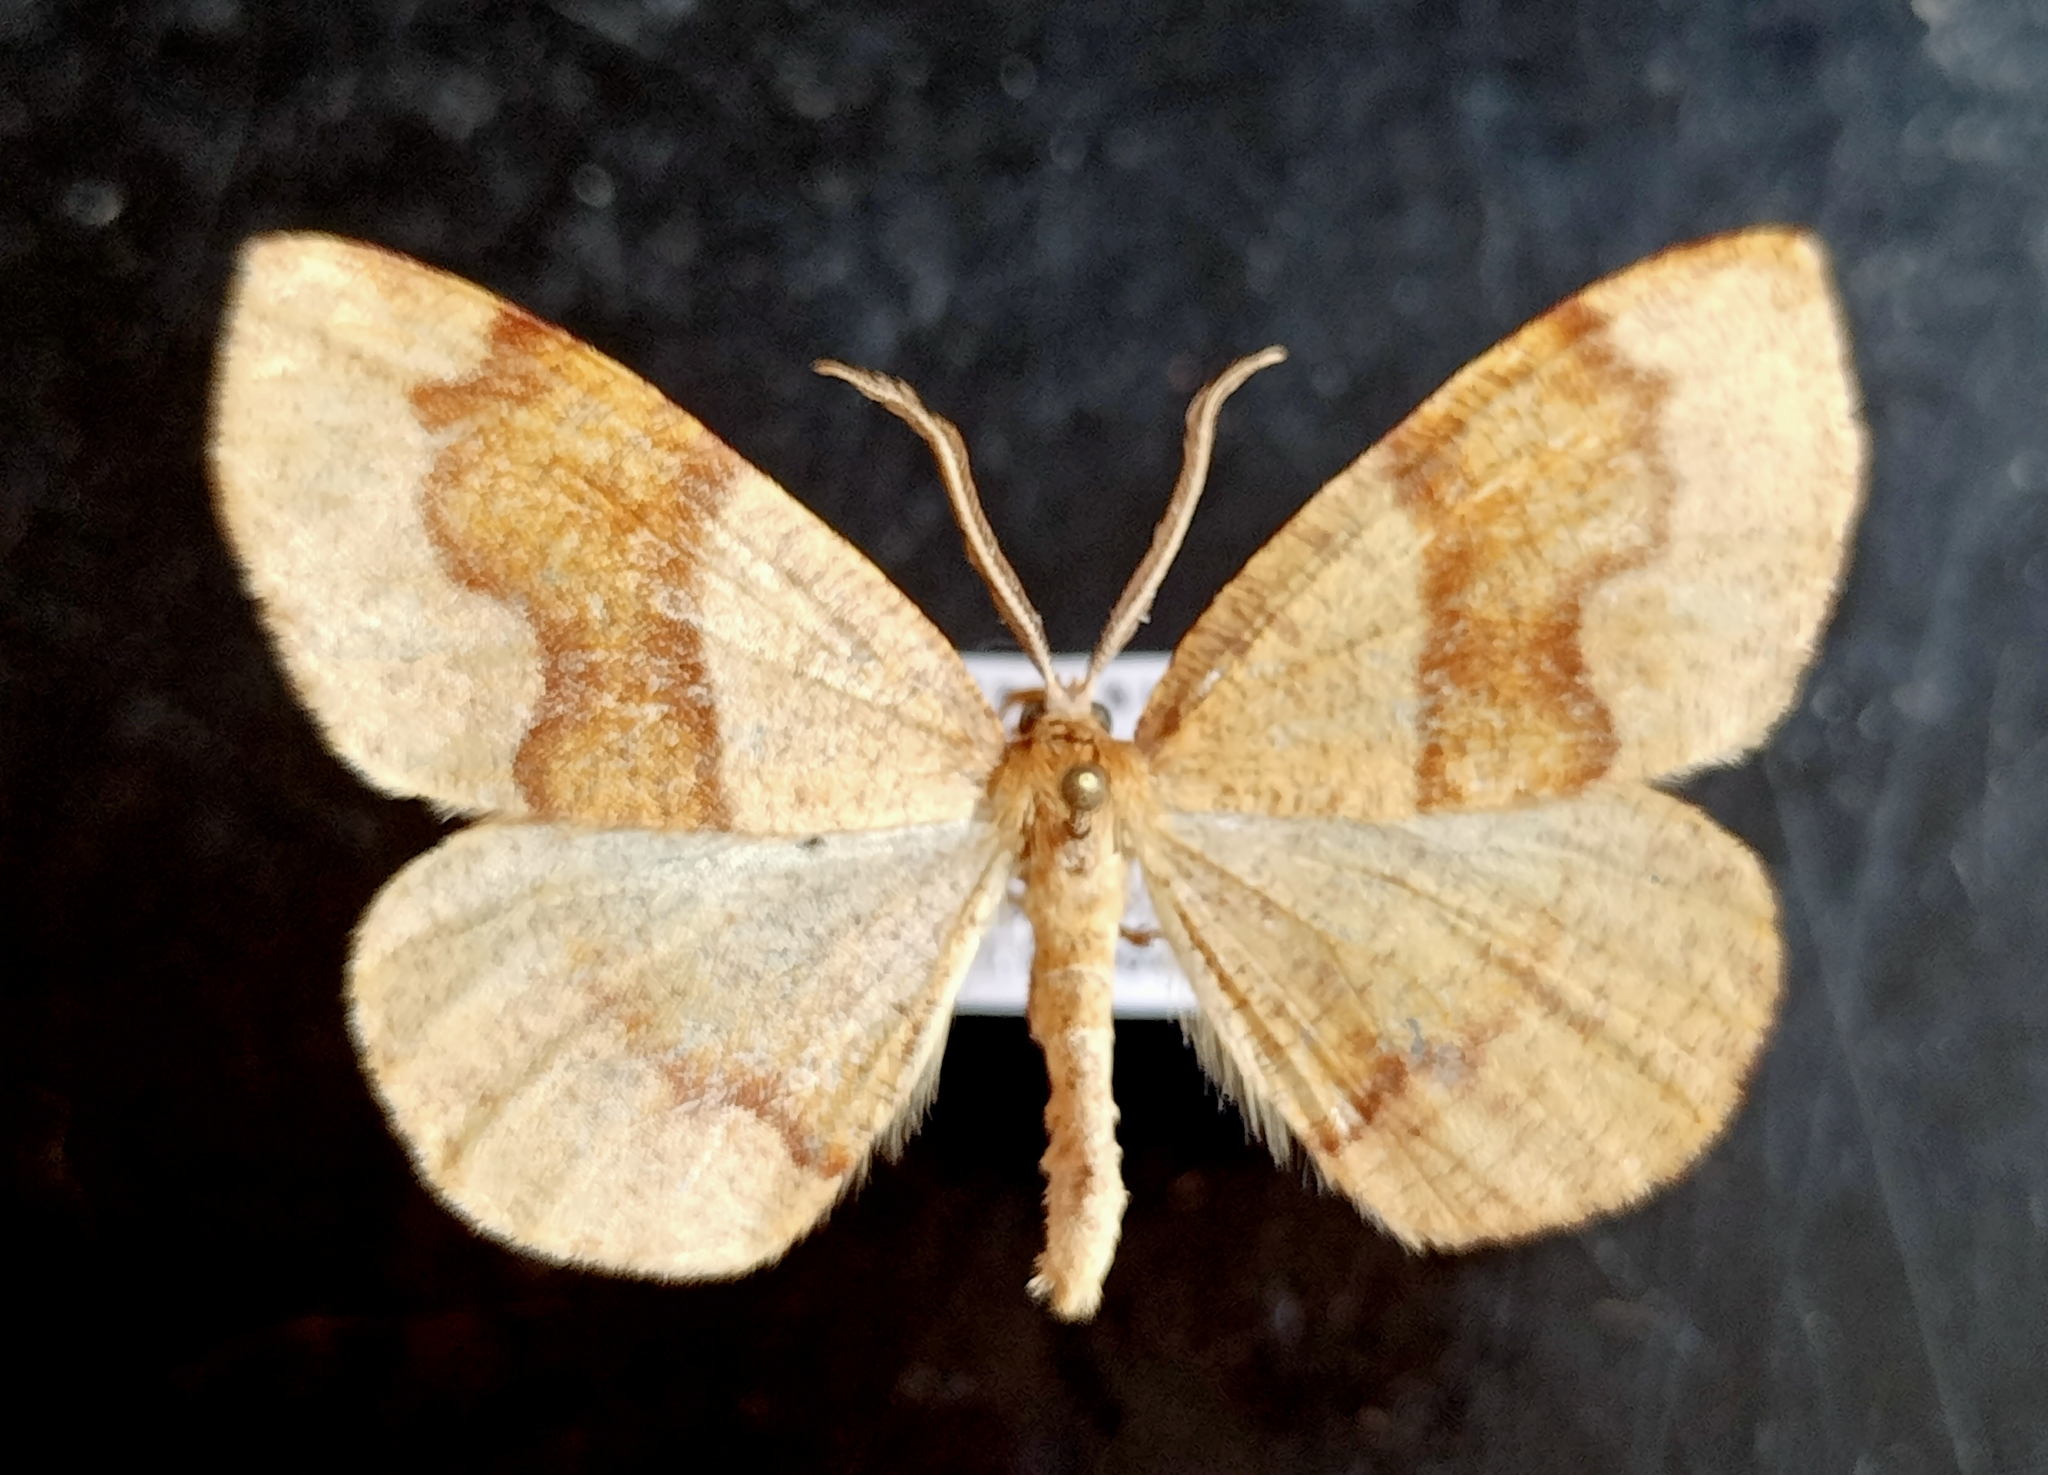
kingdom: Animalia
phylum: Arthropoda
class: Insecta
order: Lepidoptera
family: Geometridae
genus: Plagodis
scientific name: Plagodis pulveraria
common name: Barred umber
